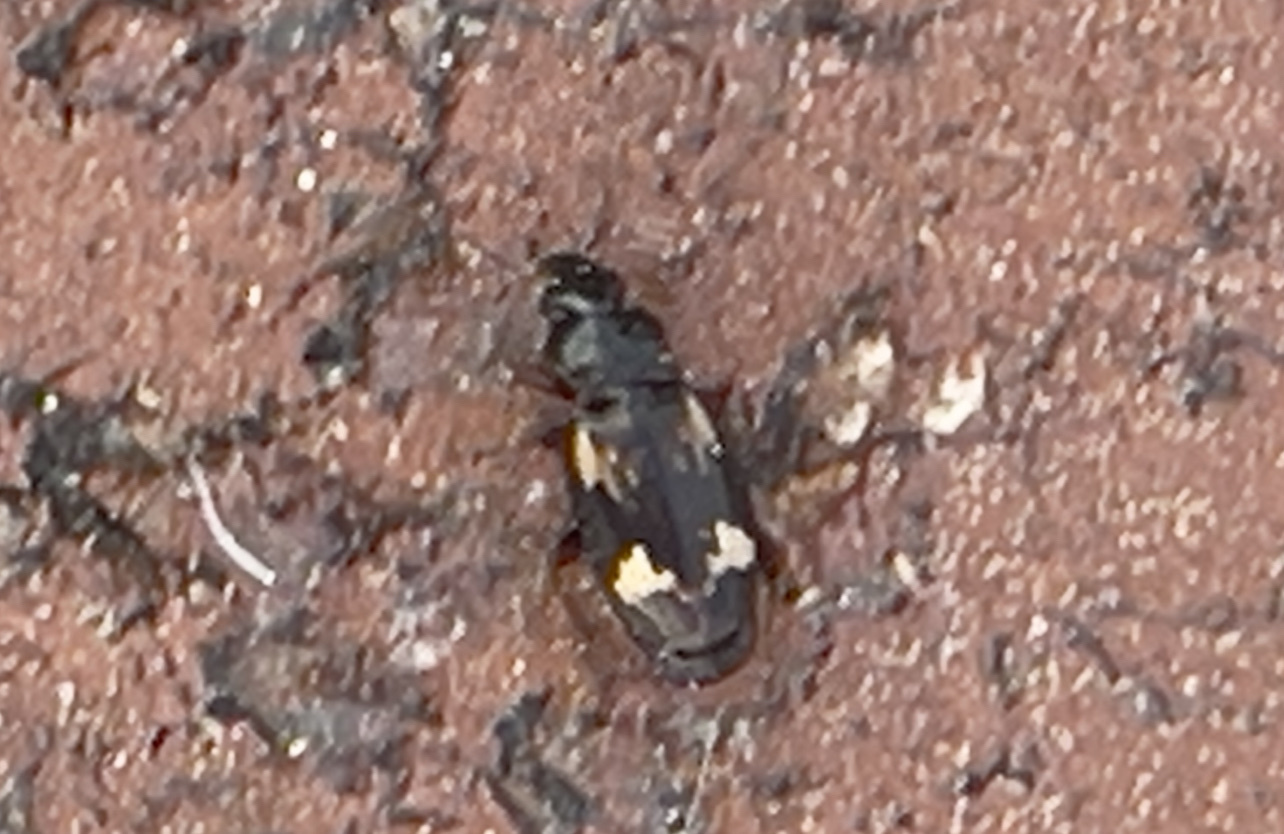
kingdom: Animalia
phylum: Arthropoda
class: Insecta
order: Coleoptera
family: Carabidae
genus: Tetragonoderus
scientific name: Tetragonoderus intersectus
